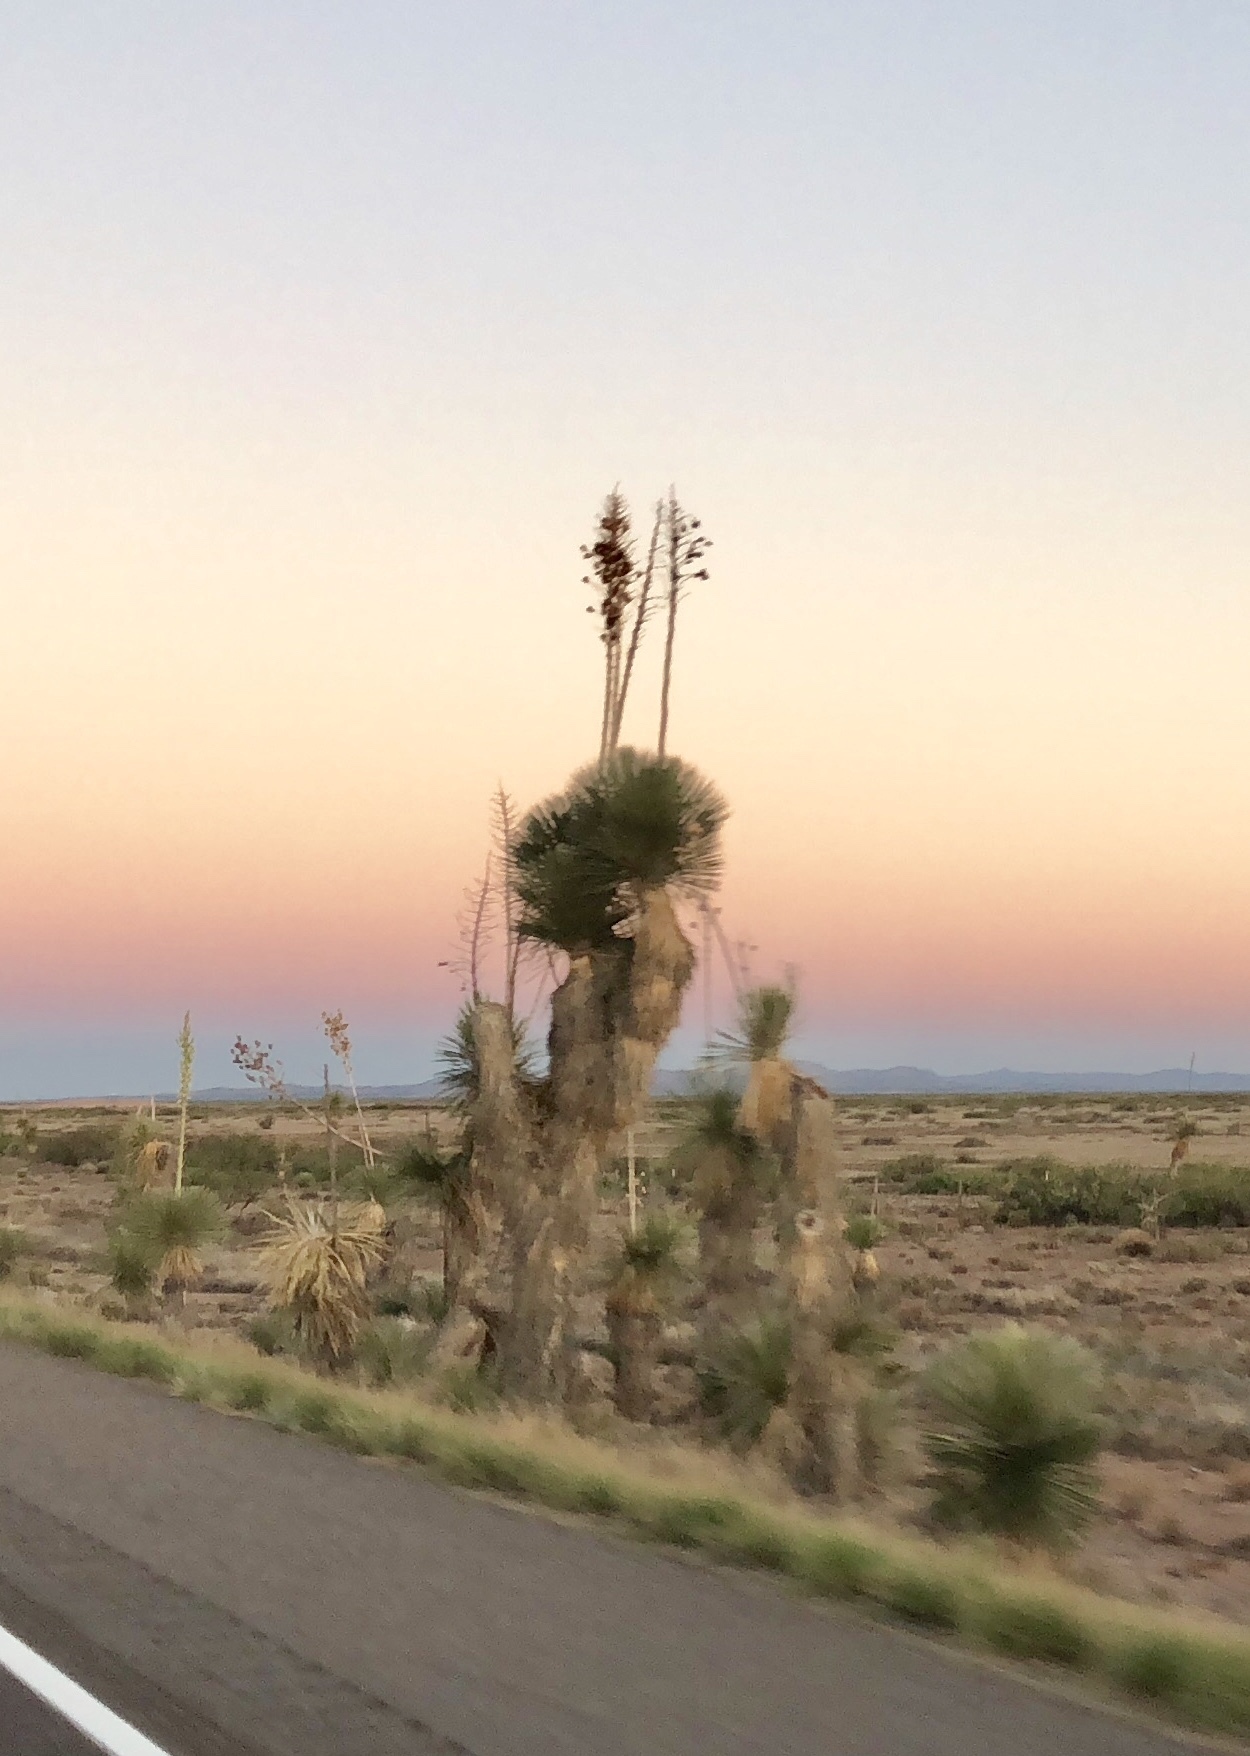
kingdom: Plantae
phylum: Tracheophyta
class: Liliopsida
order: Asparagales
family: Asparagaceae
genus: Yucca
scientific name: Yucca elata
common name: Palmella
